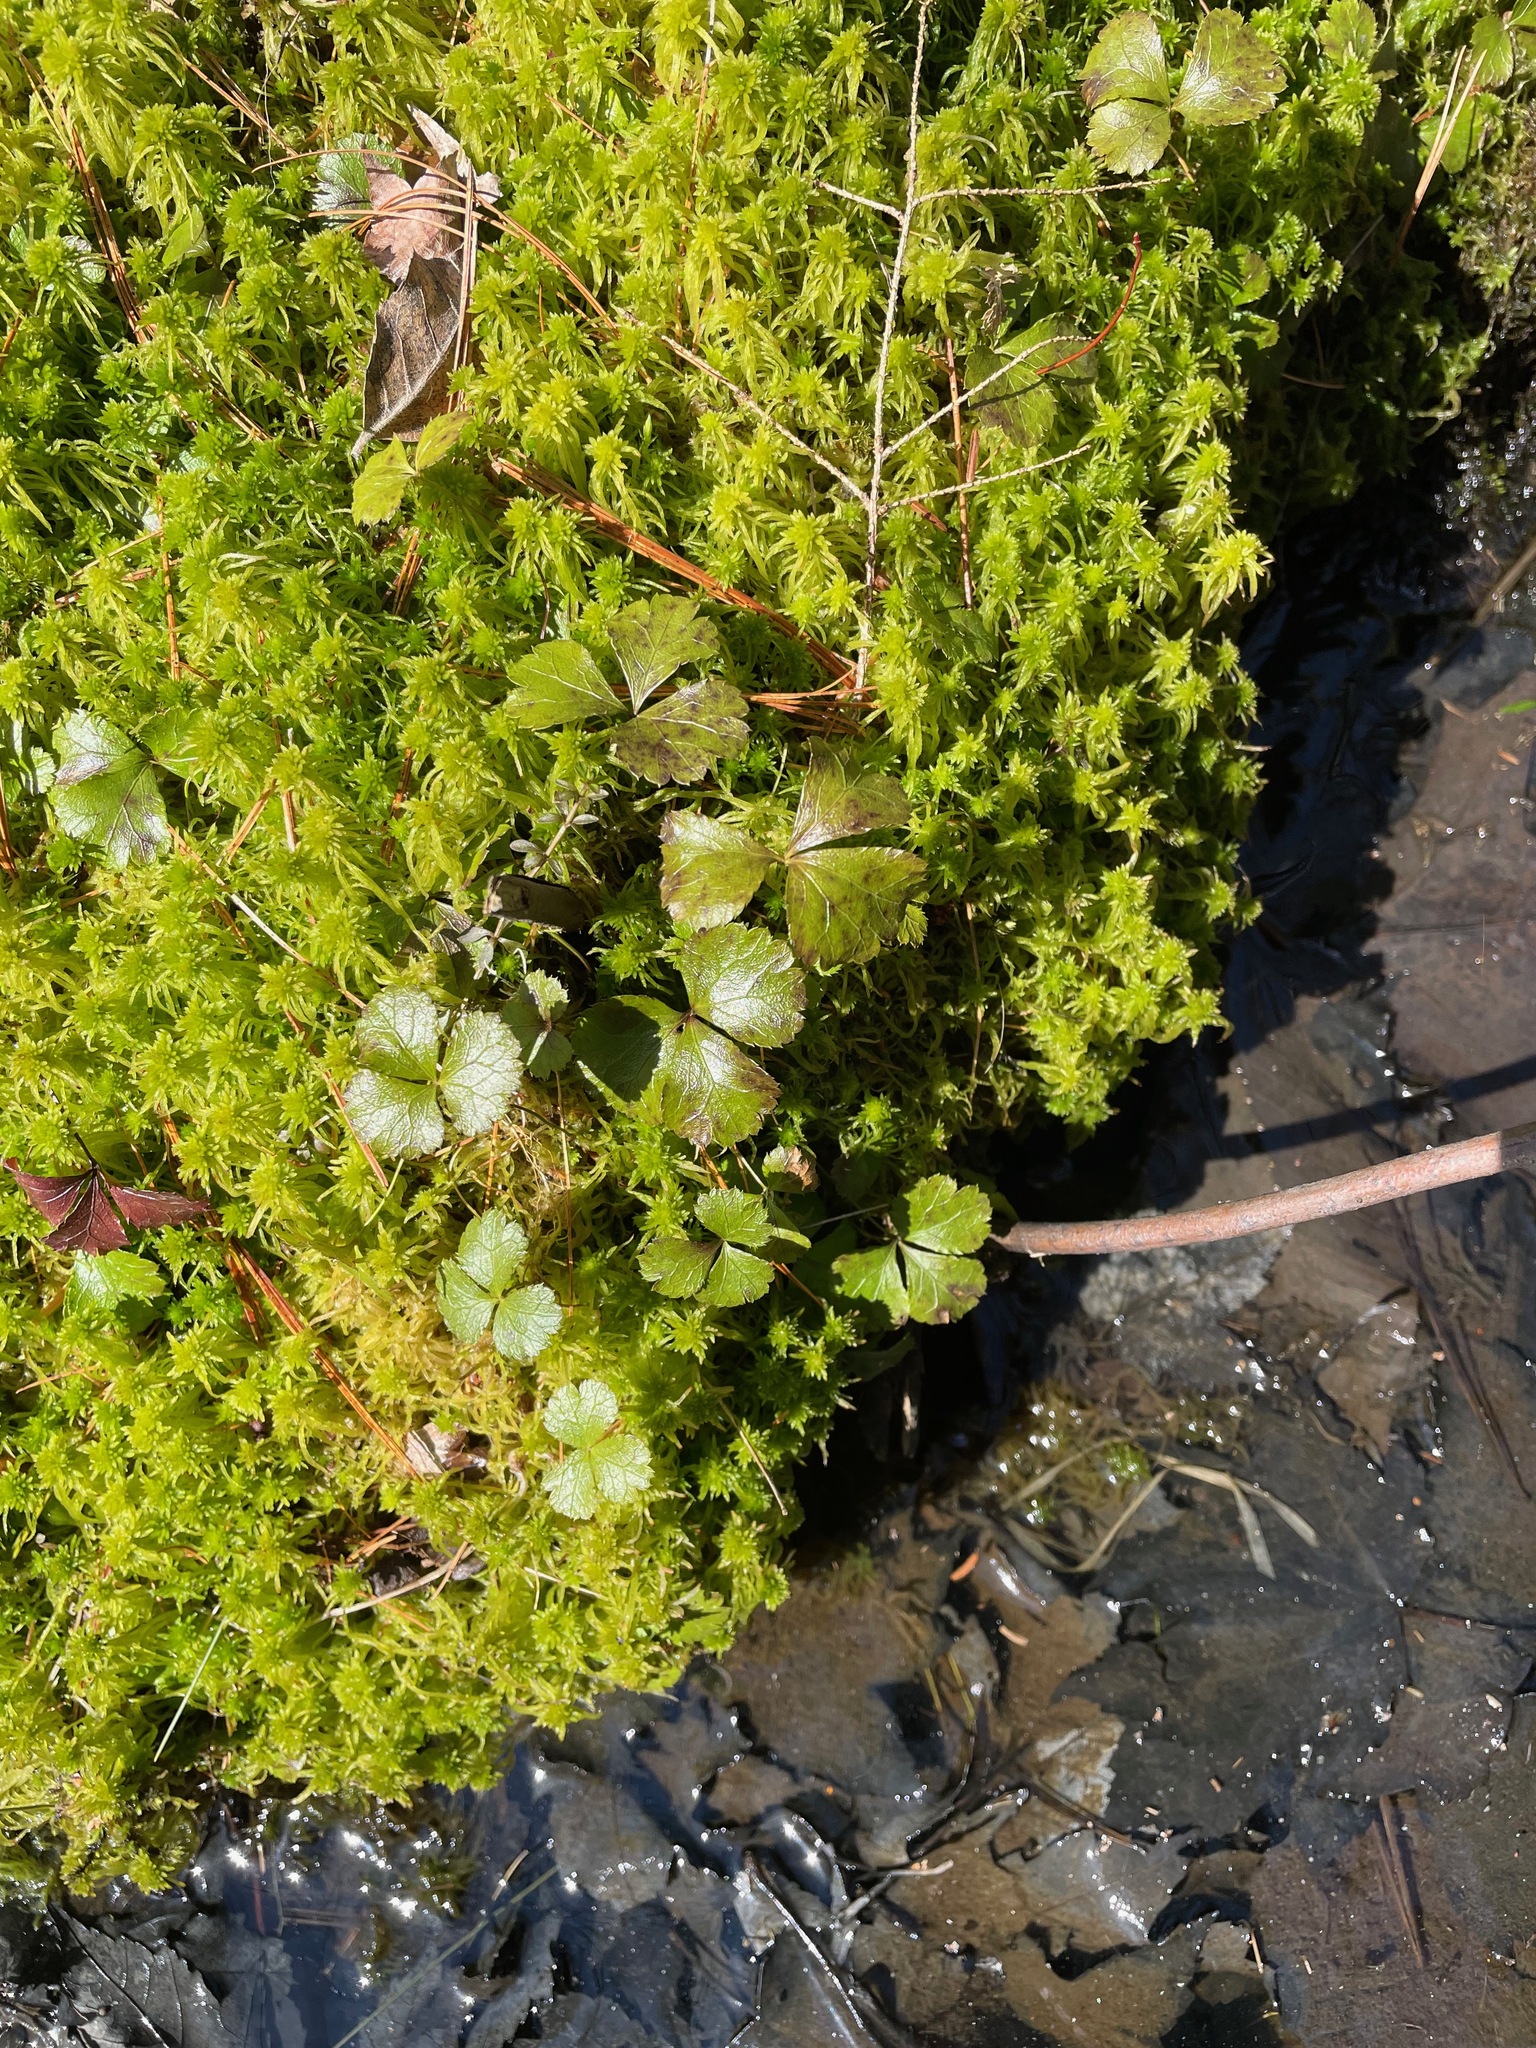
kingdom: Plantae
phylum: Tracheophyta
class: Magnoliopsida
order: Ranunculales
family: Ranunculaceae
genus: Coptis
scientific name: Coptis trifolia
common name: Canker-root
